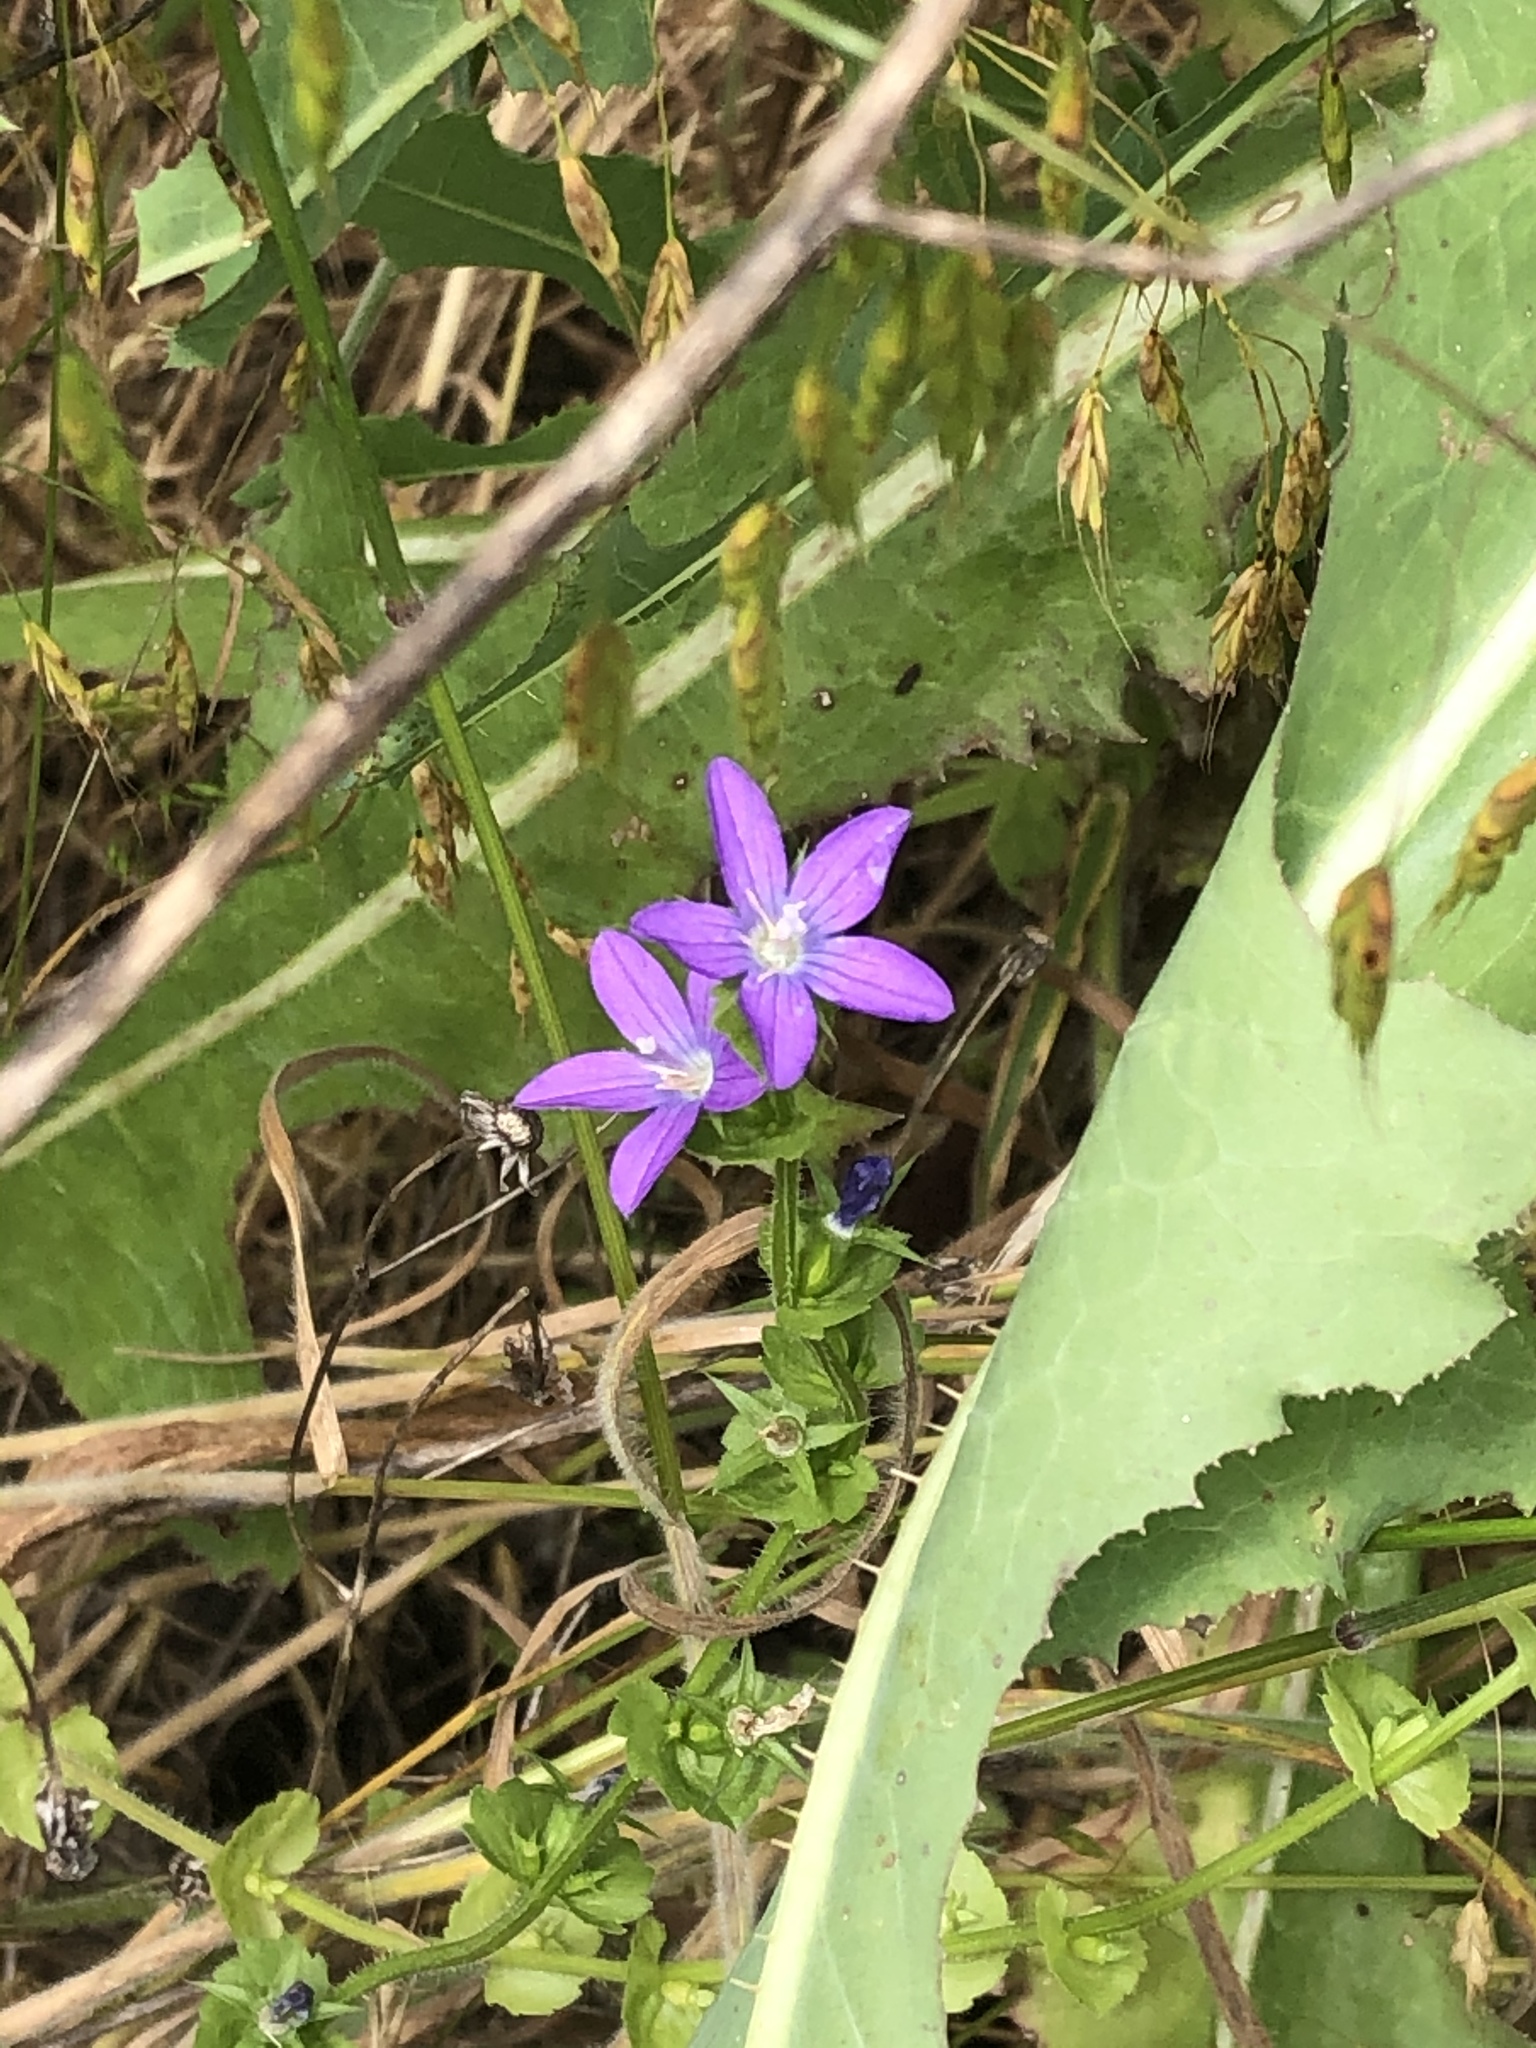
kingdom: Plantae
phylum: Tracheophyta
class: Magnoliopsida
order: Asterales
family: Campanulaceae
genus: Triodanis
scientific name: Triodanis perfoliata
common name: Clasping venus' looking-glass
